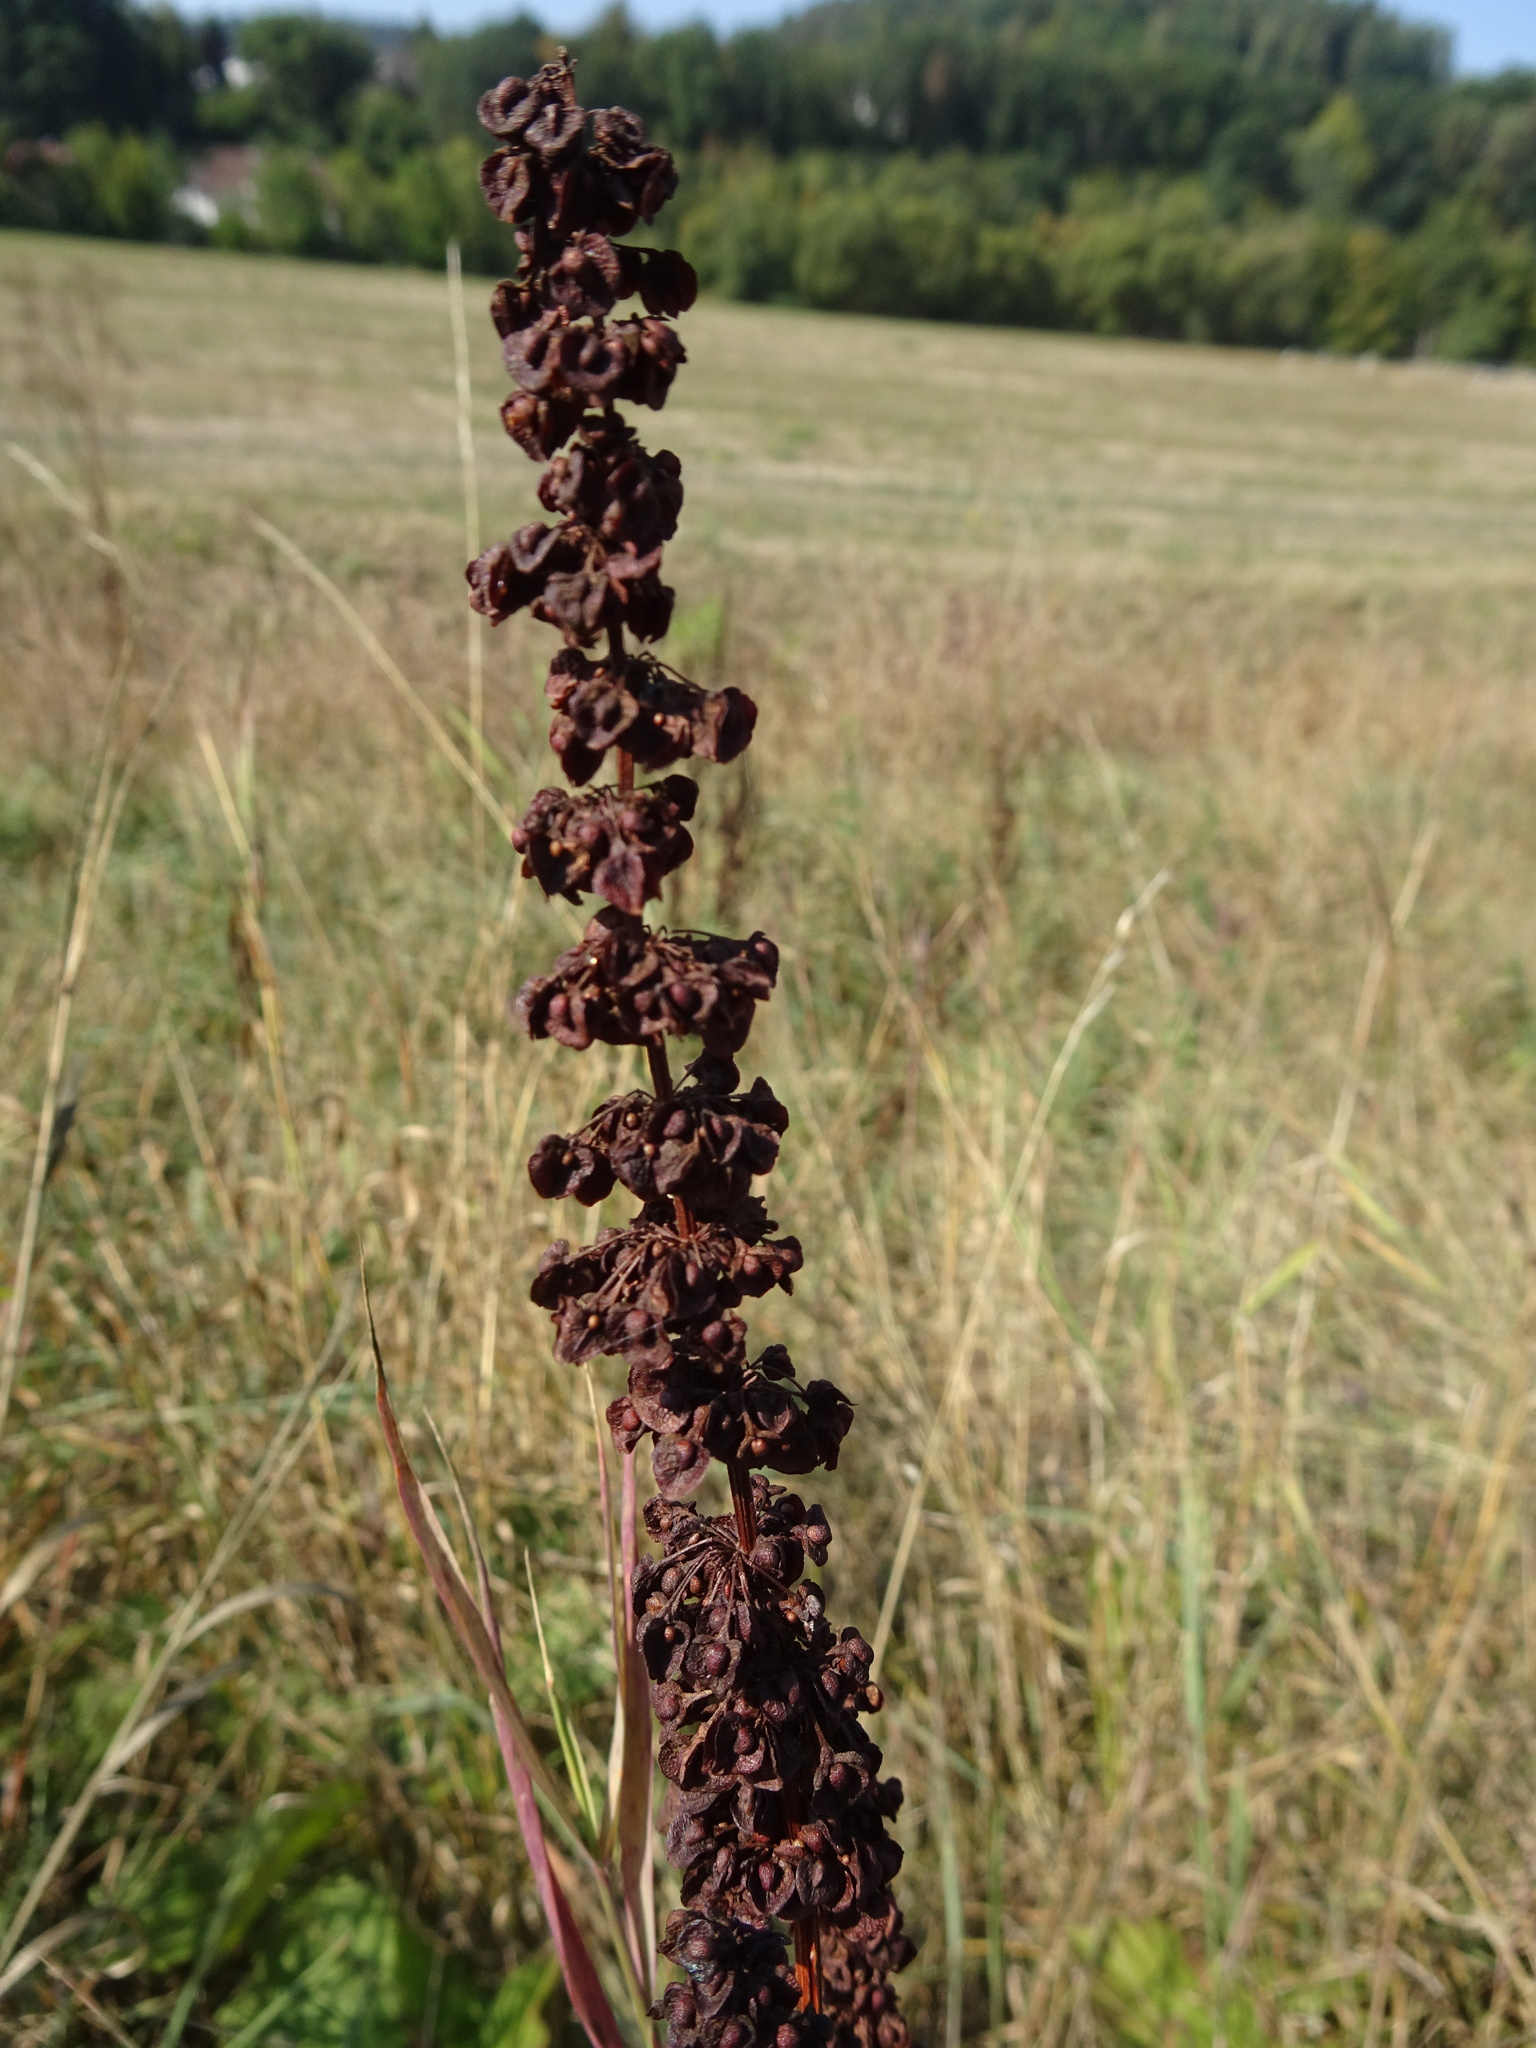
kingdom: Plantae
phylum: Tracheophyta
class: Magnoliopsida
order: Caryophyllales
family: Polygonaceae
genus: Rumex
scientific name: Rumex crispus
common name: Curled dock
